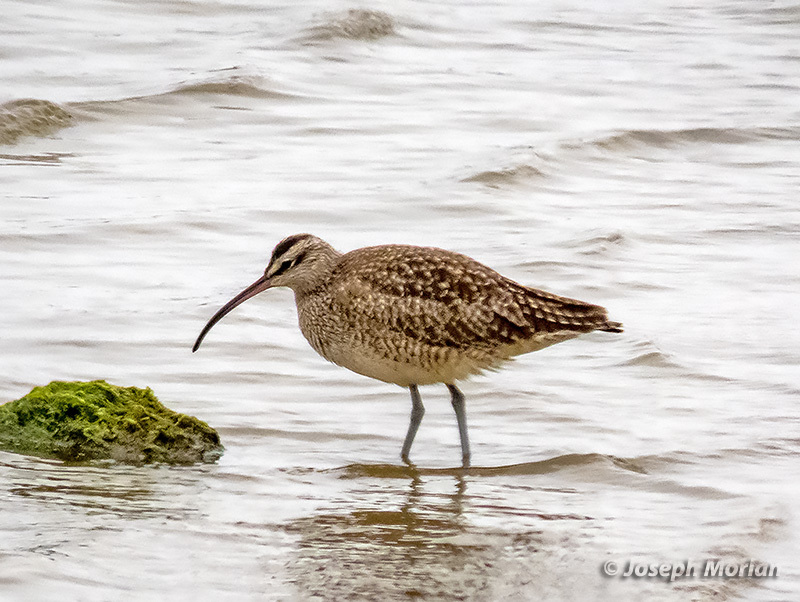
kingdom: Animalia
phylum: Chordata
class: Aves
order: Charadriiformes
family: Scolopacidae
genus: Numenius
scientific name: Numenius phaeopus
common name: Whimbrel
